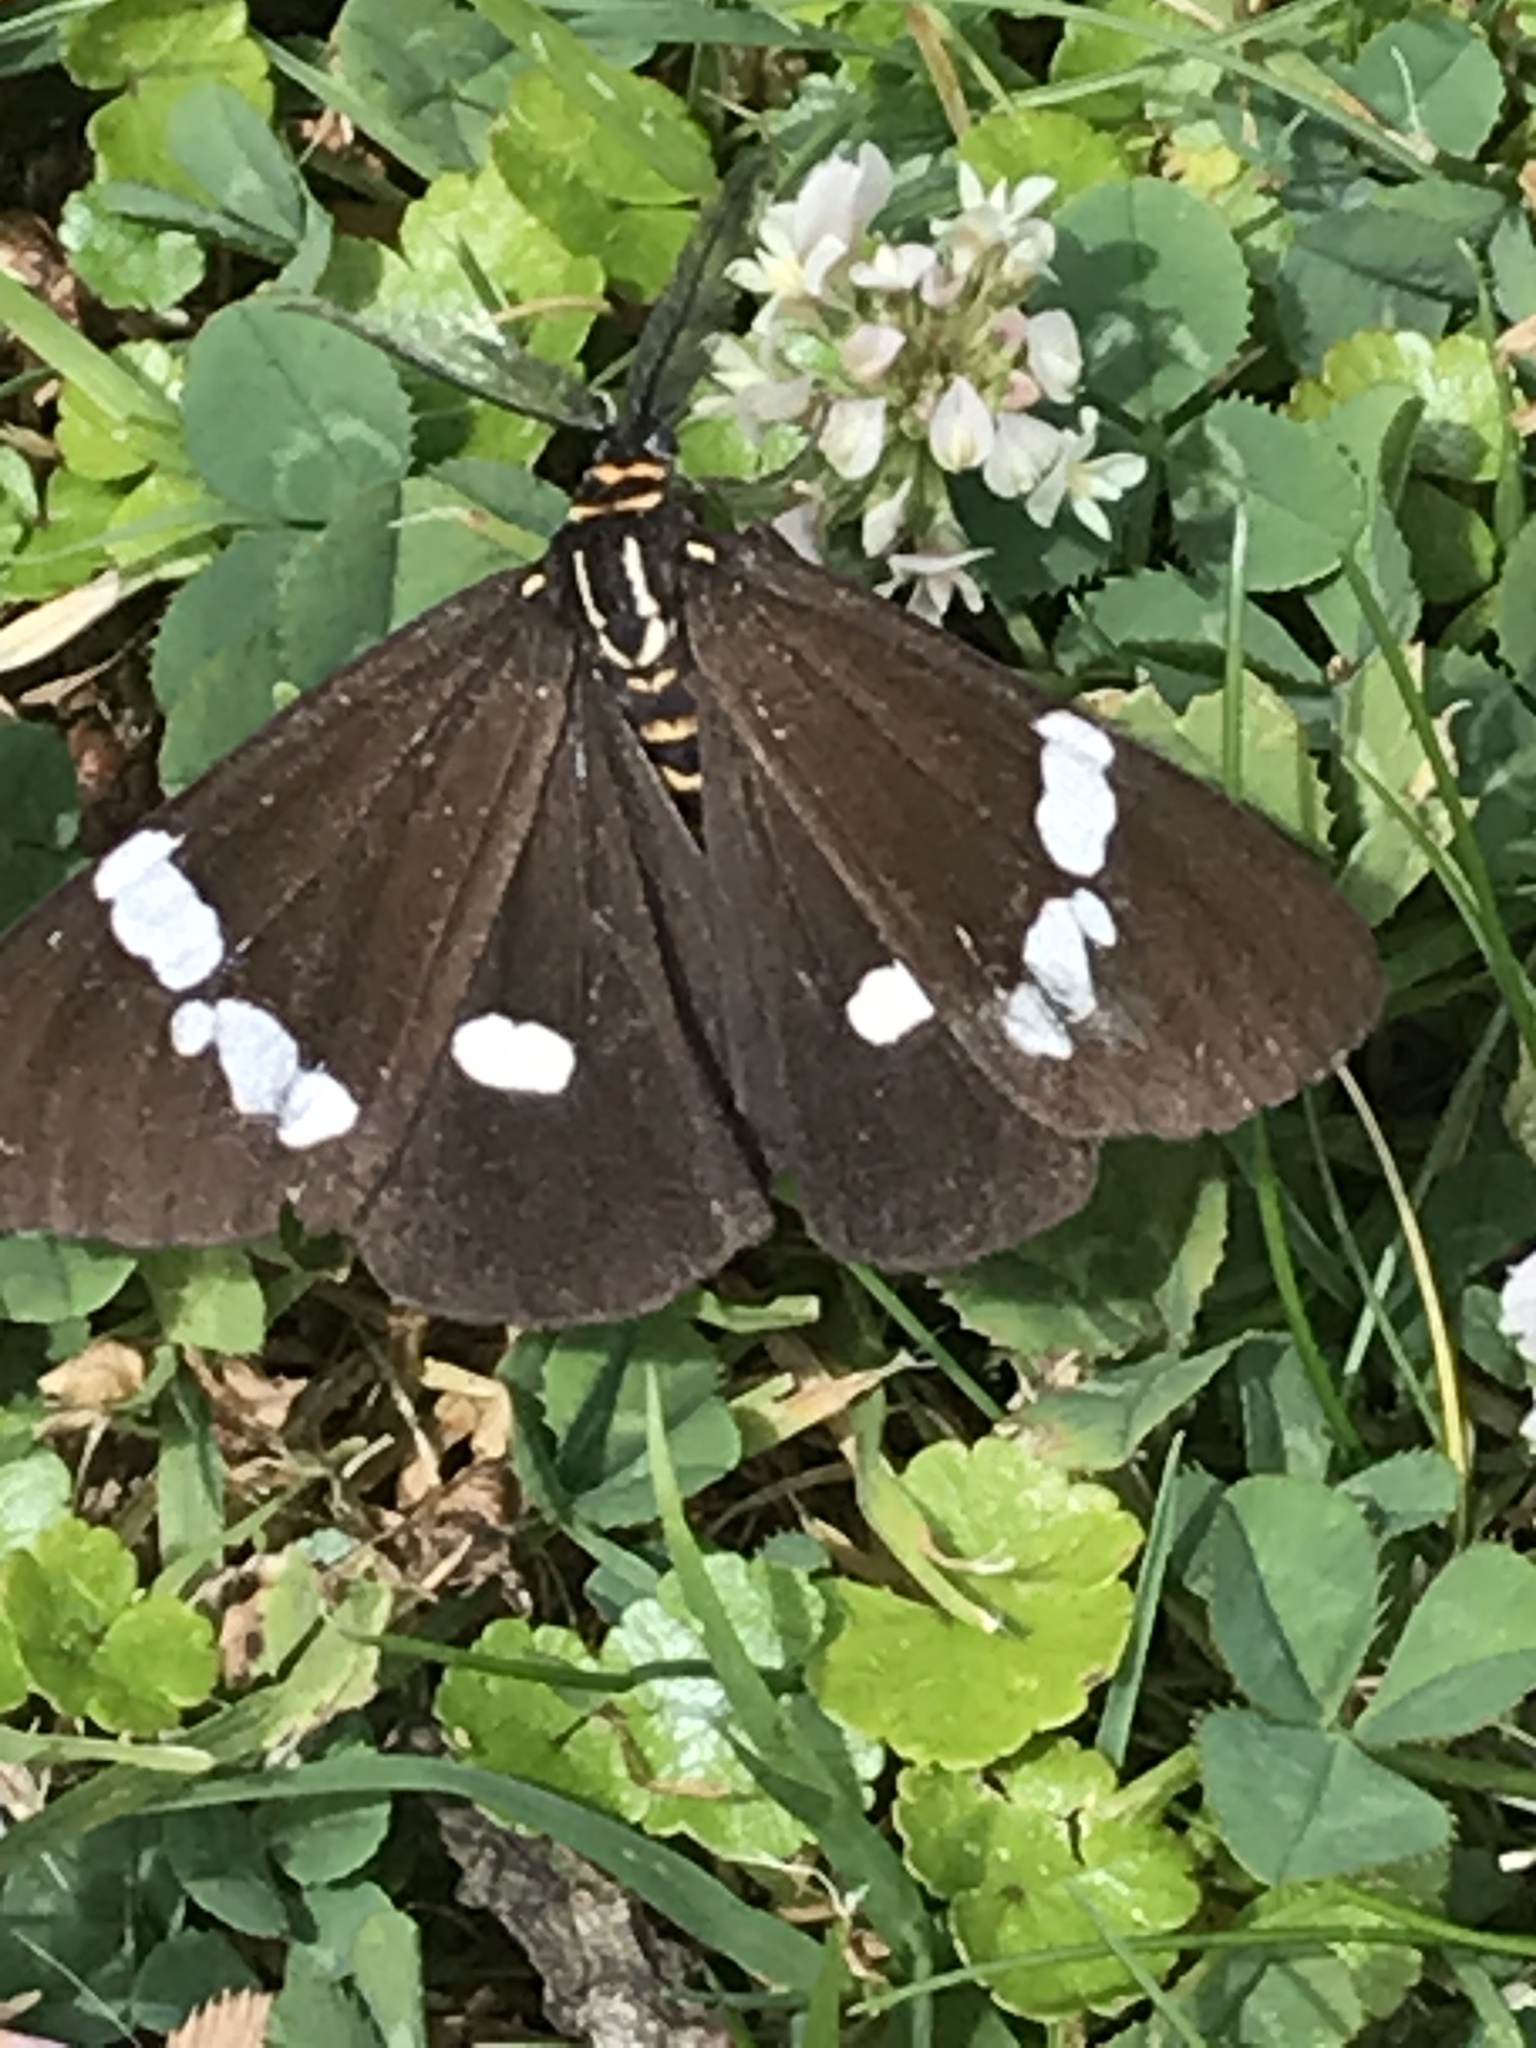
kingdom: Animalia
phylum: Arthropoda
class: Insecta
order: Lepidoptera
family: Erebidae
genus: Nyctemera
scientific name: Nyctemera annulatum
